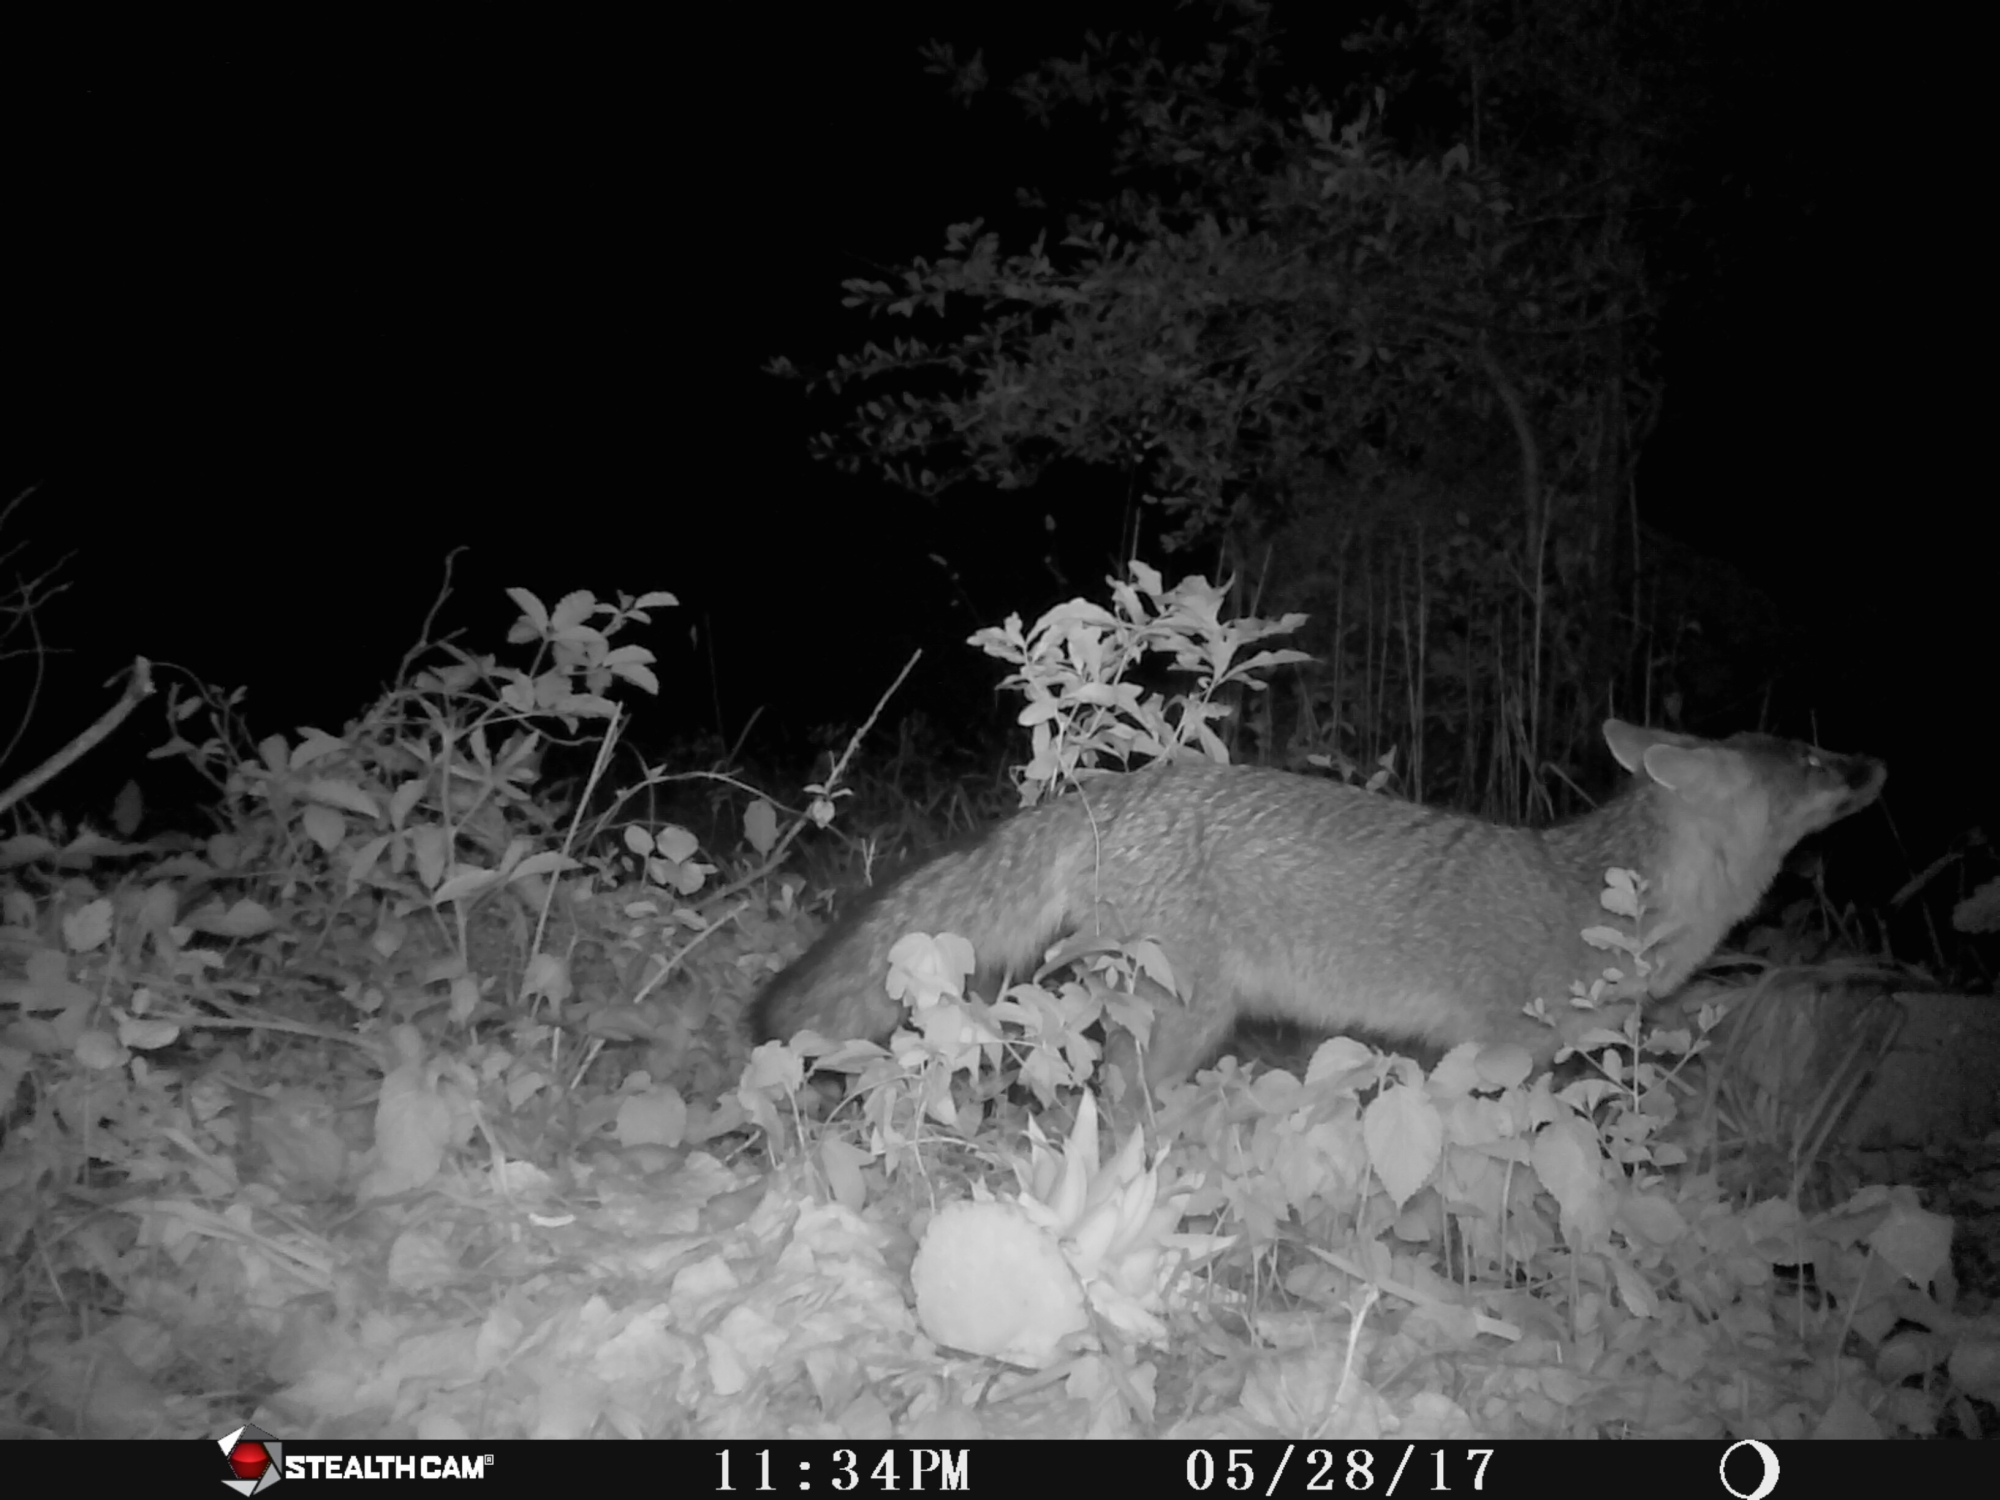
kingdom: Animalia
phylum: Chordata
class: Mammalia
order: Carnivora
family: Canidae
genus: Urocyon
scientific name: Urocyon cinereoargenteus
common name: Gray fox
